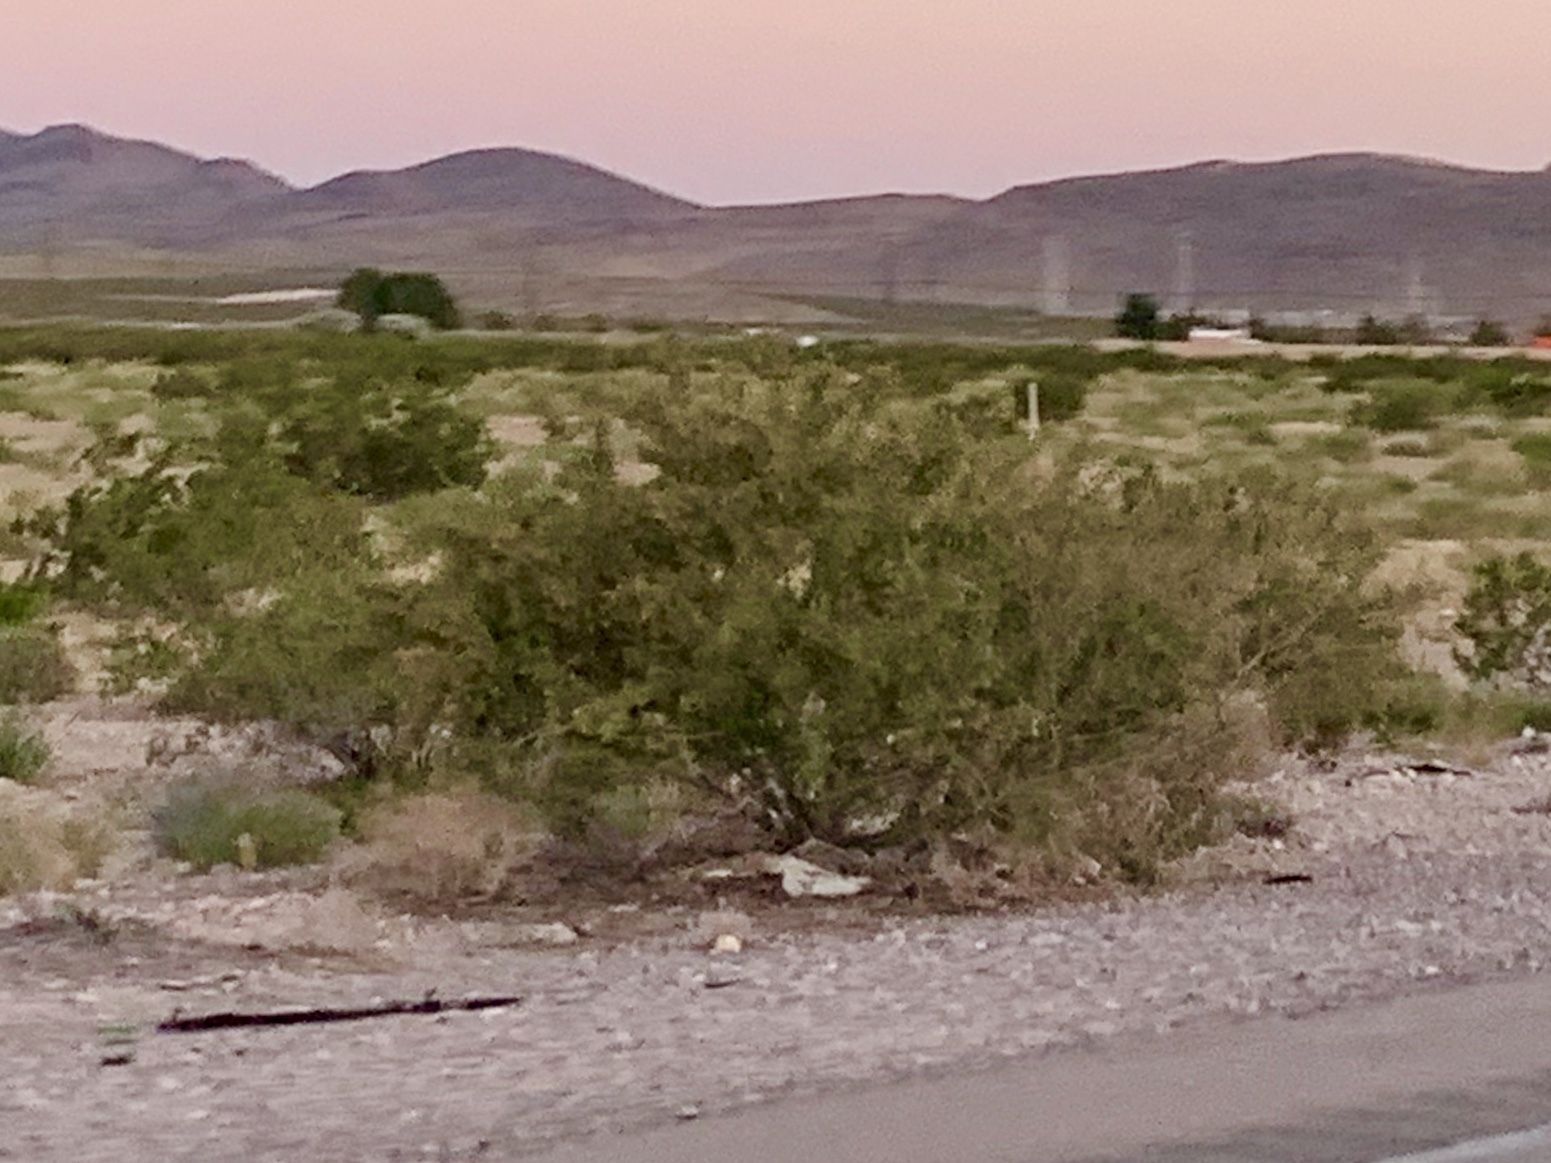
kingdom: Plantae
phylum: Tracheophyta
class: Magnoliopsida
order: Zygophyllales
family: Zygophyllaceae
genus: Larrea
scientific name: Larrea tridentata
